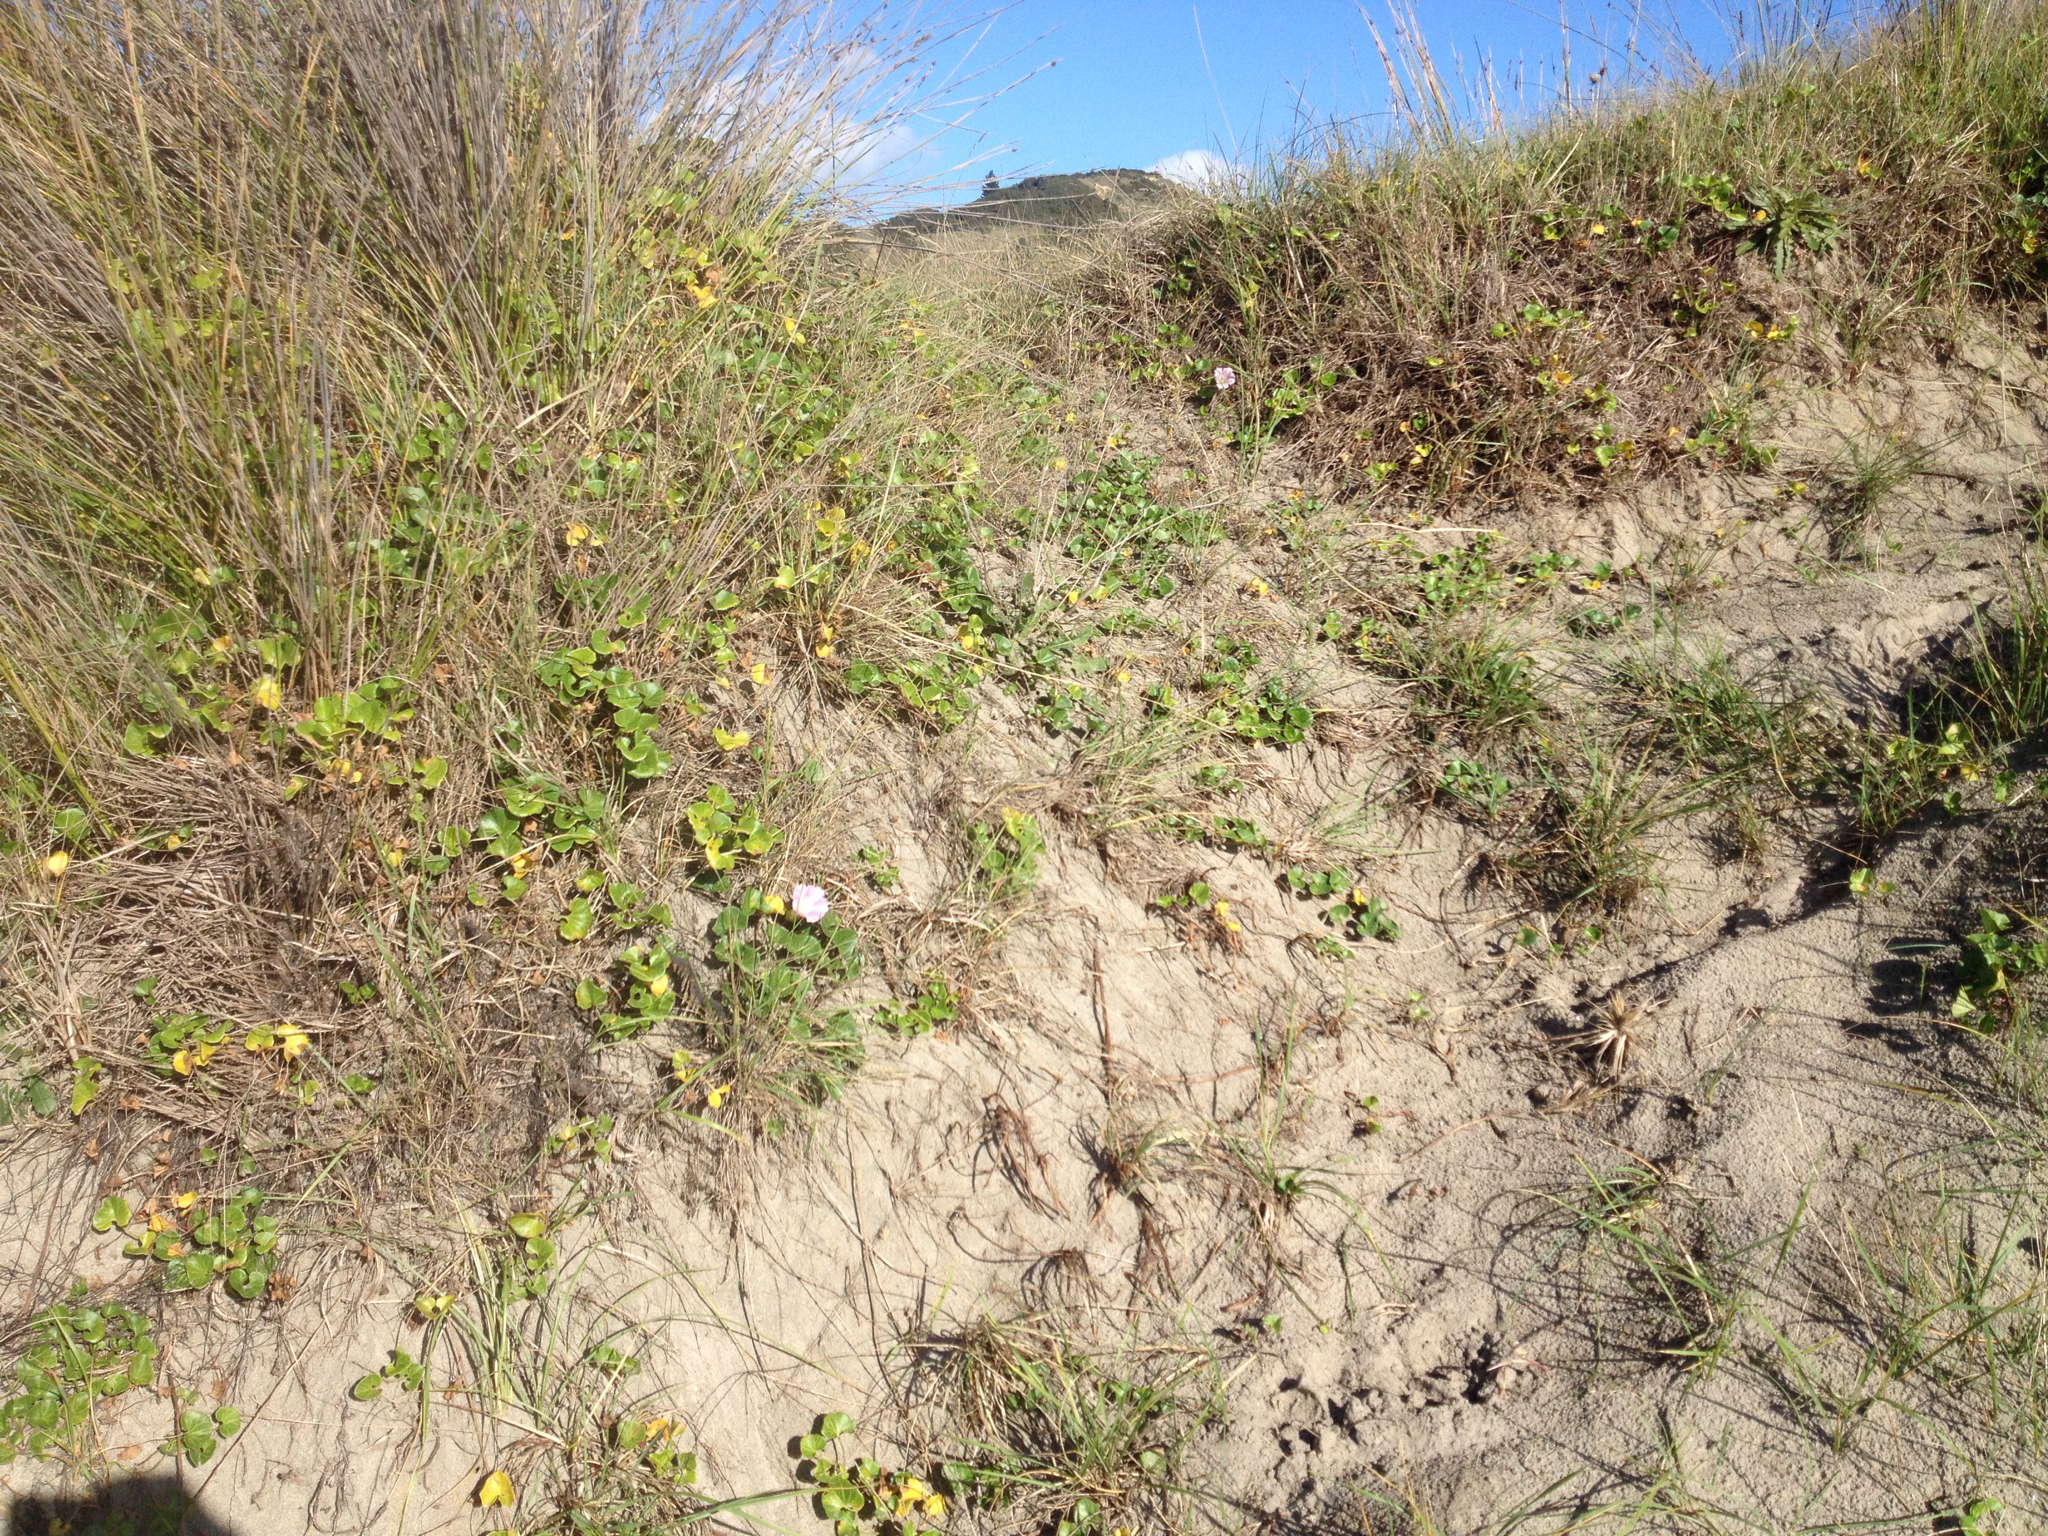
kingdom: Plantae
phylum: Tracheophyta
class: Magnoliopsida
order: Solanales
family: Convolvulaceae
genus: Calystegia
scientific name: Calystegia soldanella
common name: Sea bindweed
